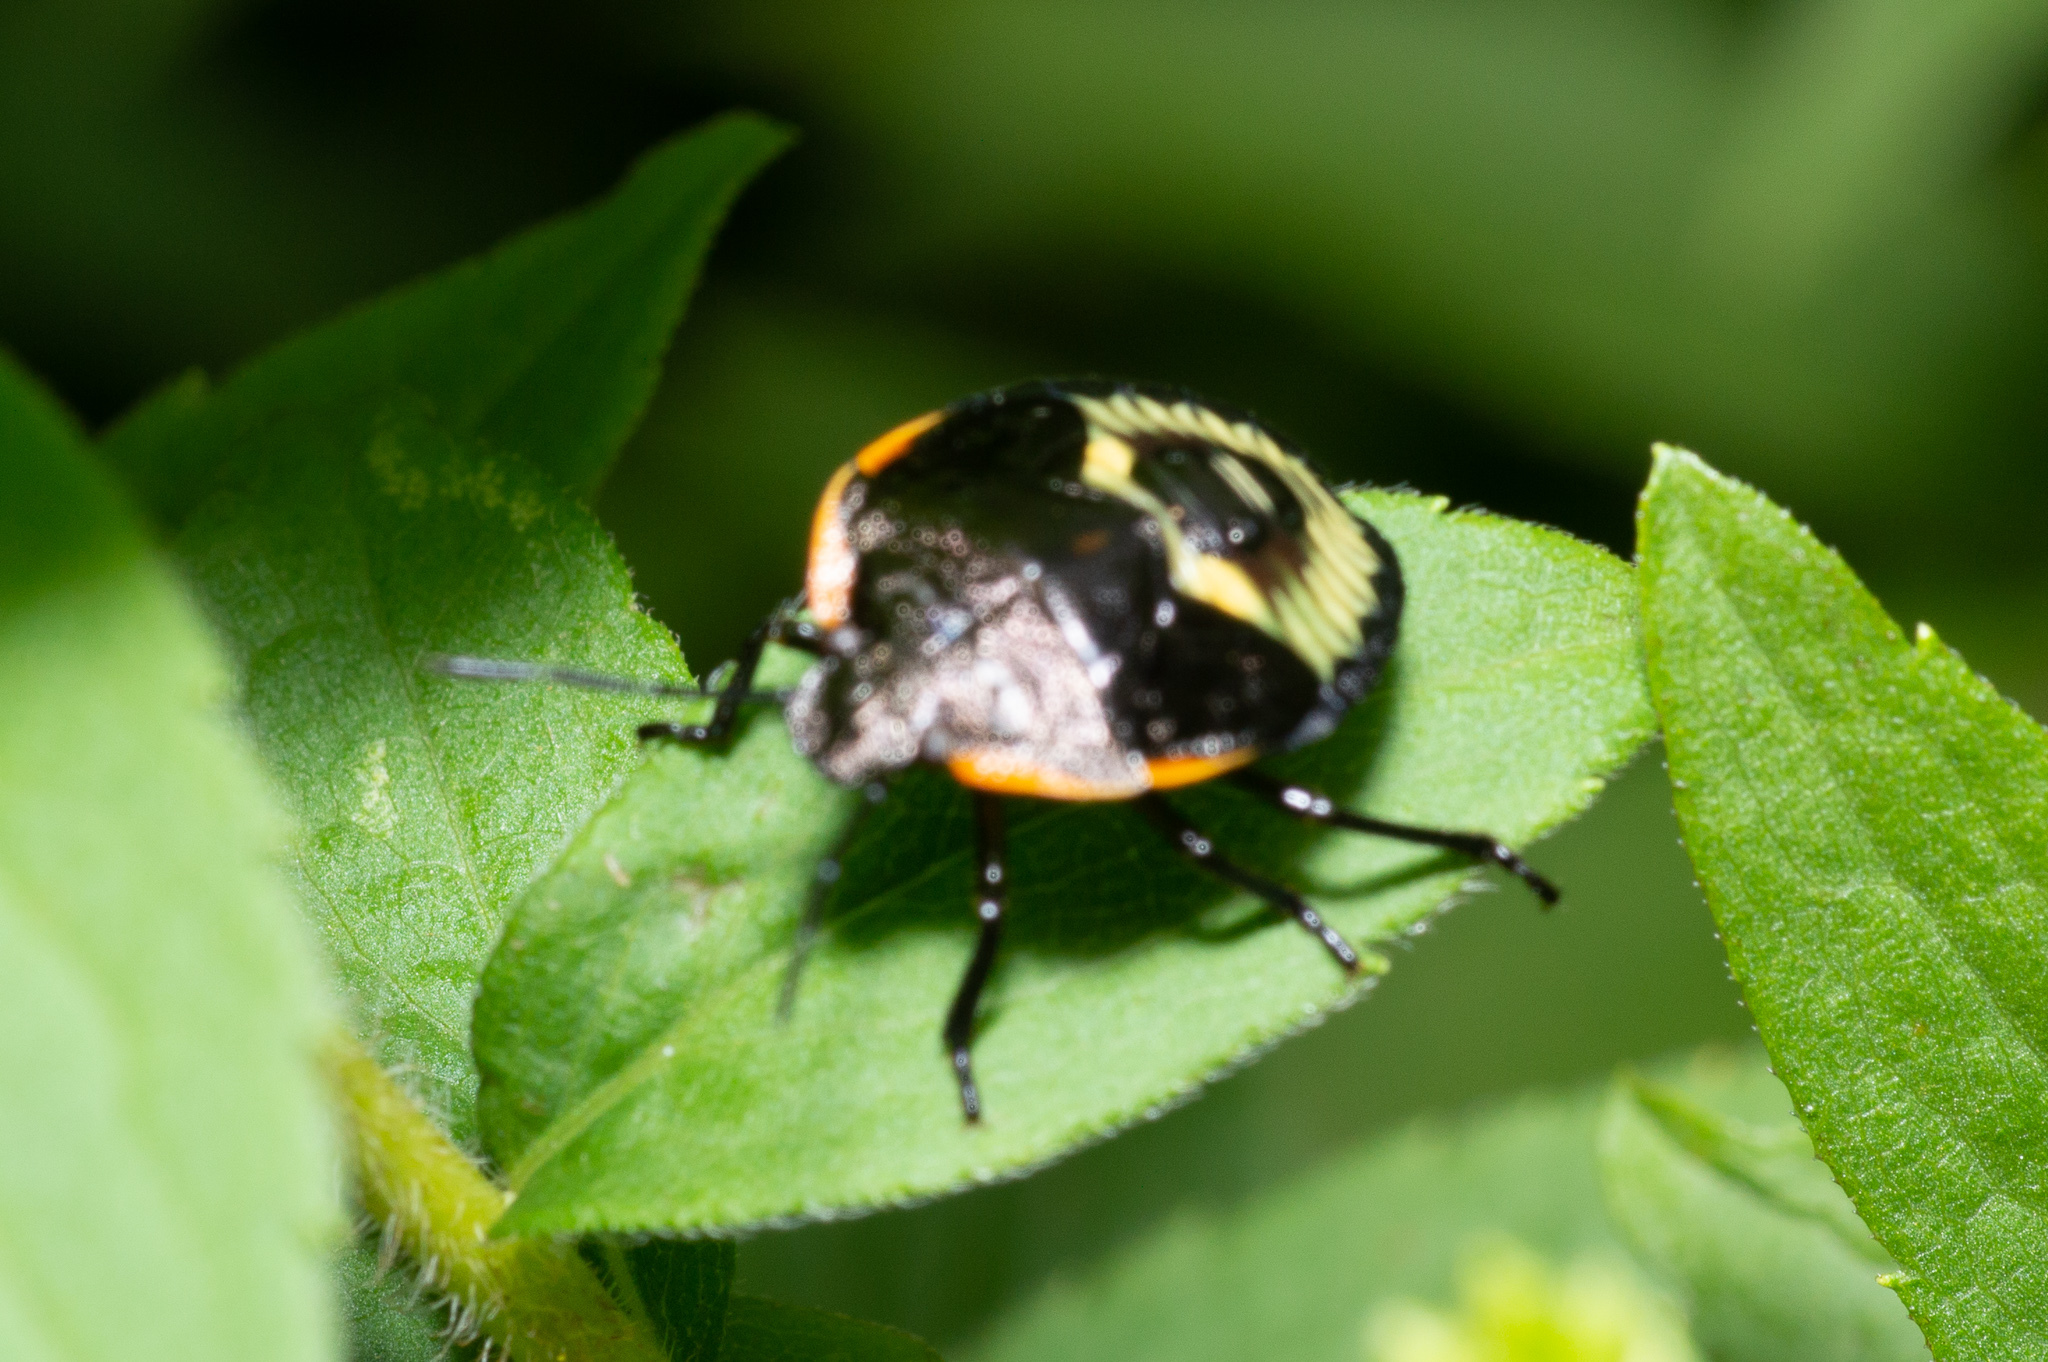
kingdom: Animalia
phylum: Arthropoda
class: Insecta
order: Hemiptera
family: Pentatomidae
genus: Chinavia
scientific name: Chinavia hilaris
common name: Green stink bug
